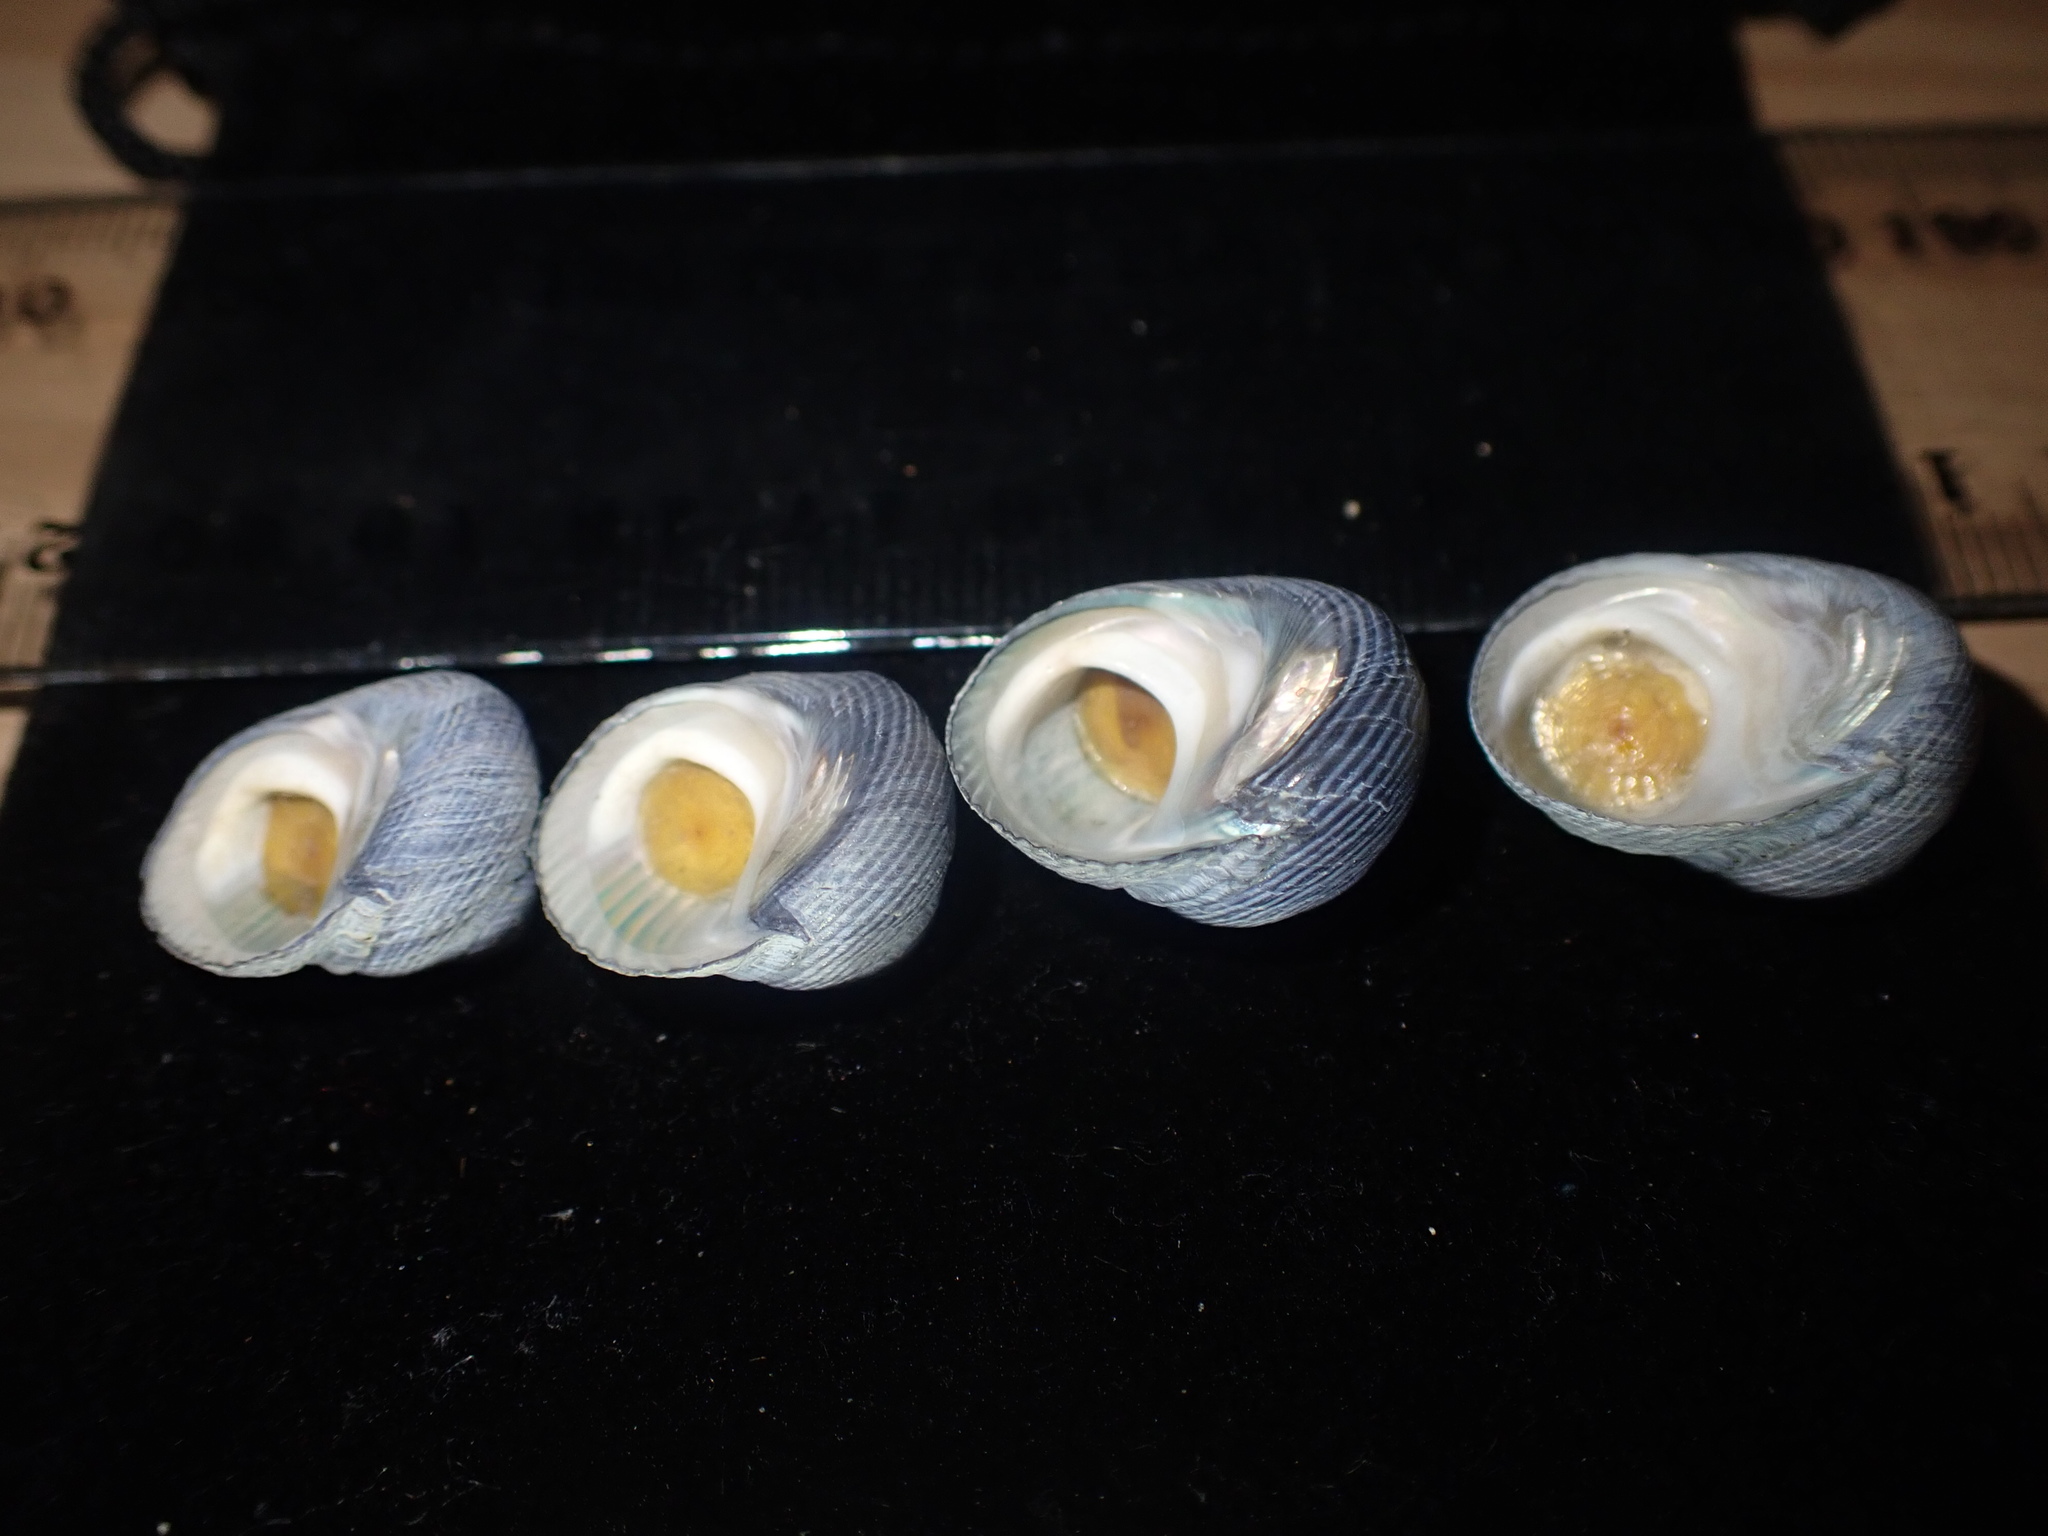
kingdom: Animalia
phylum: Mollusca
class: Gastropoda
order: Trochida
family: Trochidae
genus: Diloma
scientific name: Diloma nigerrimum
